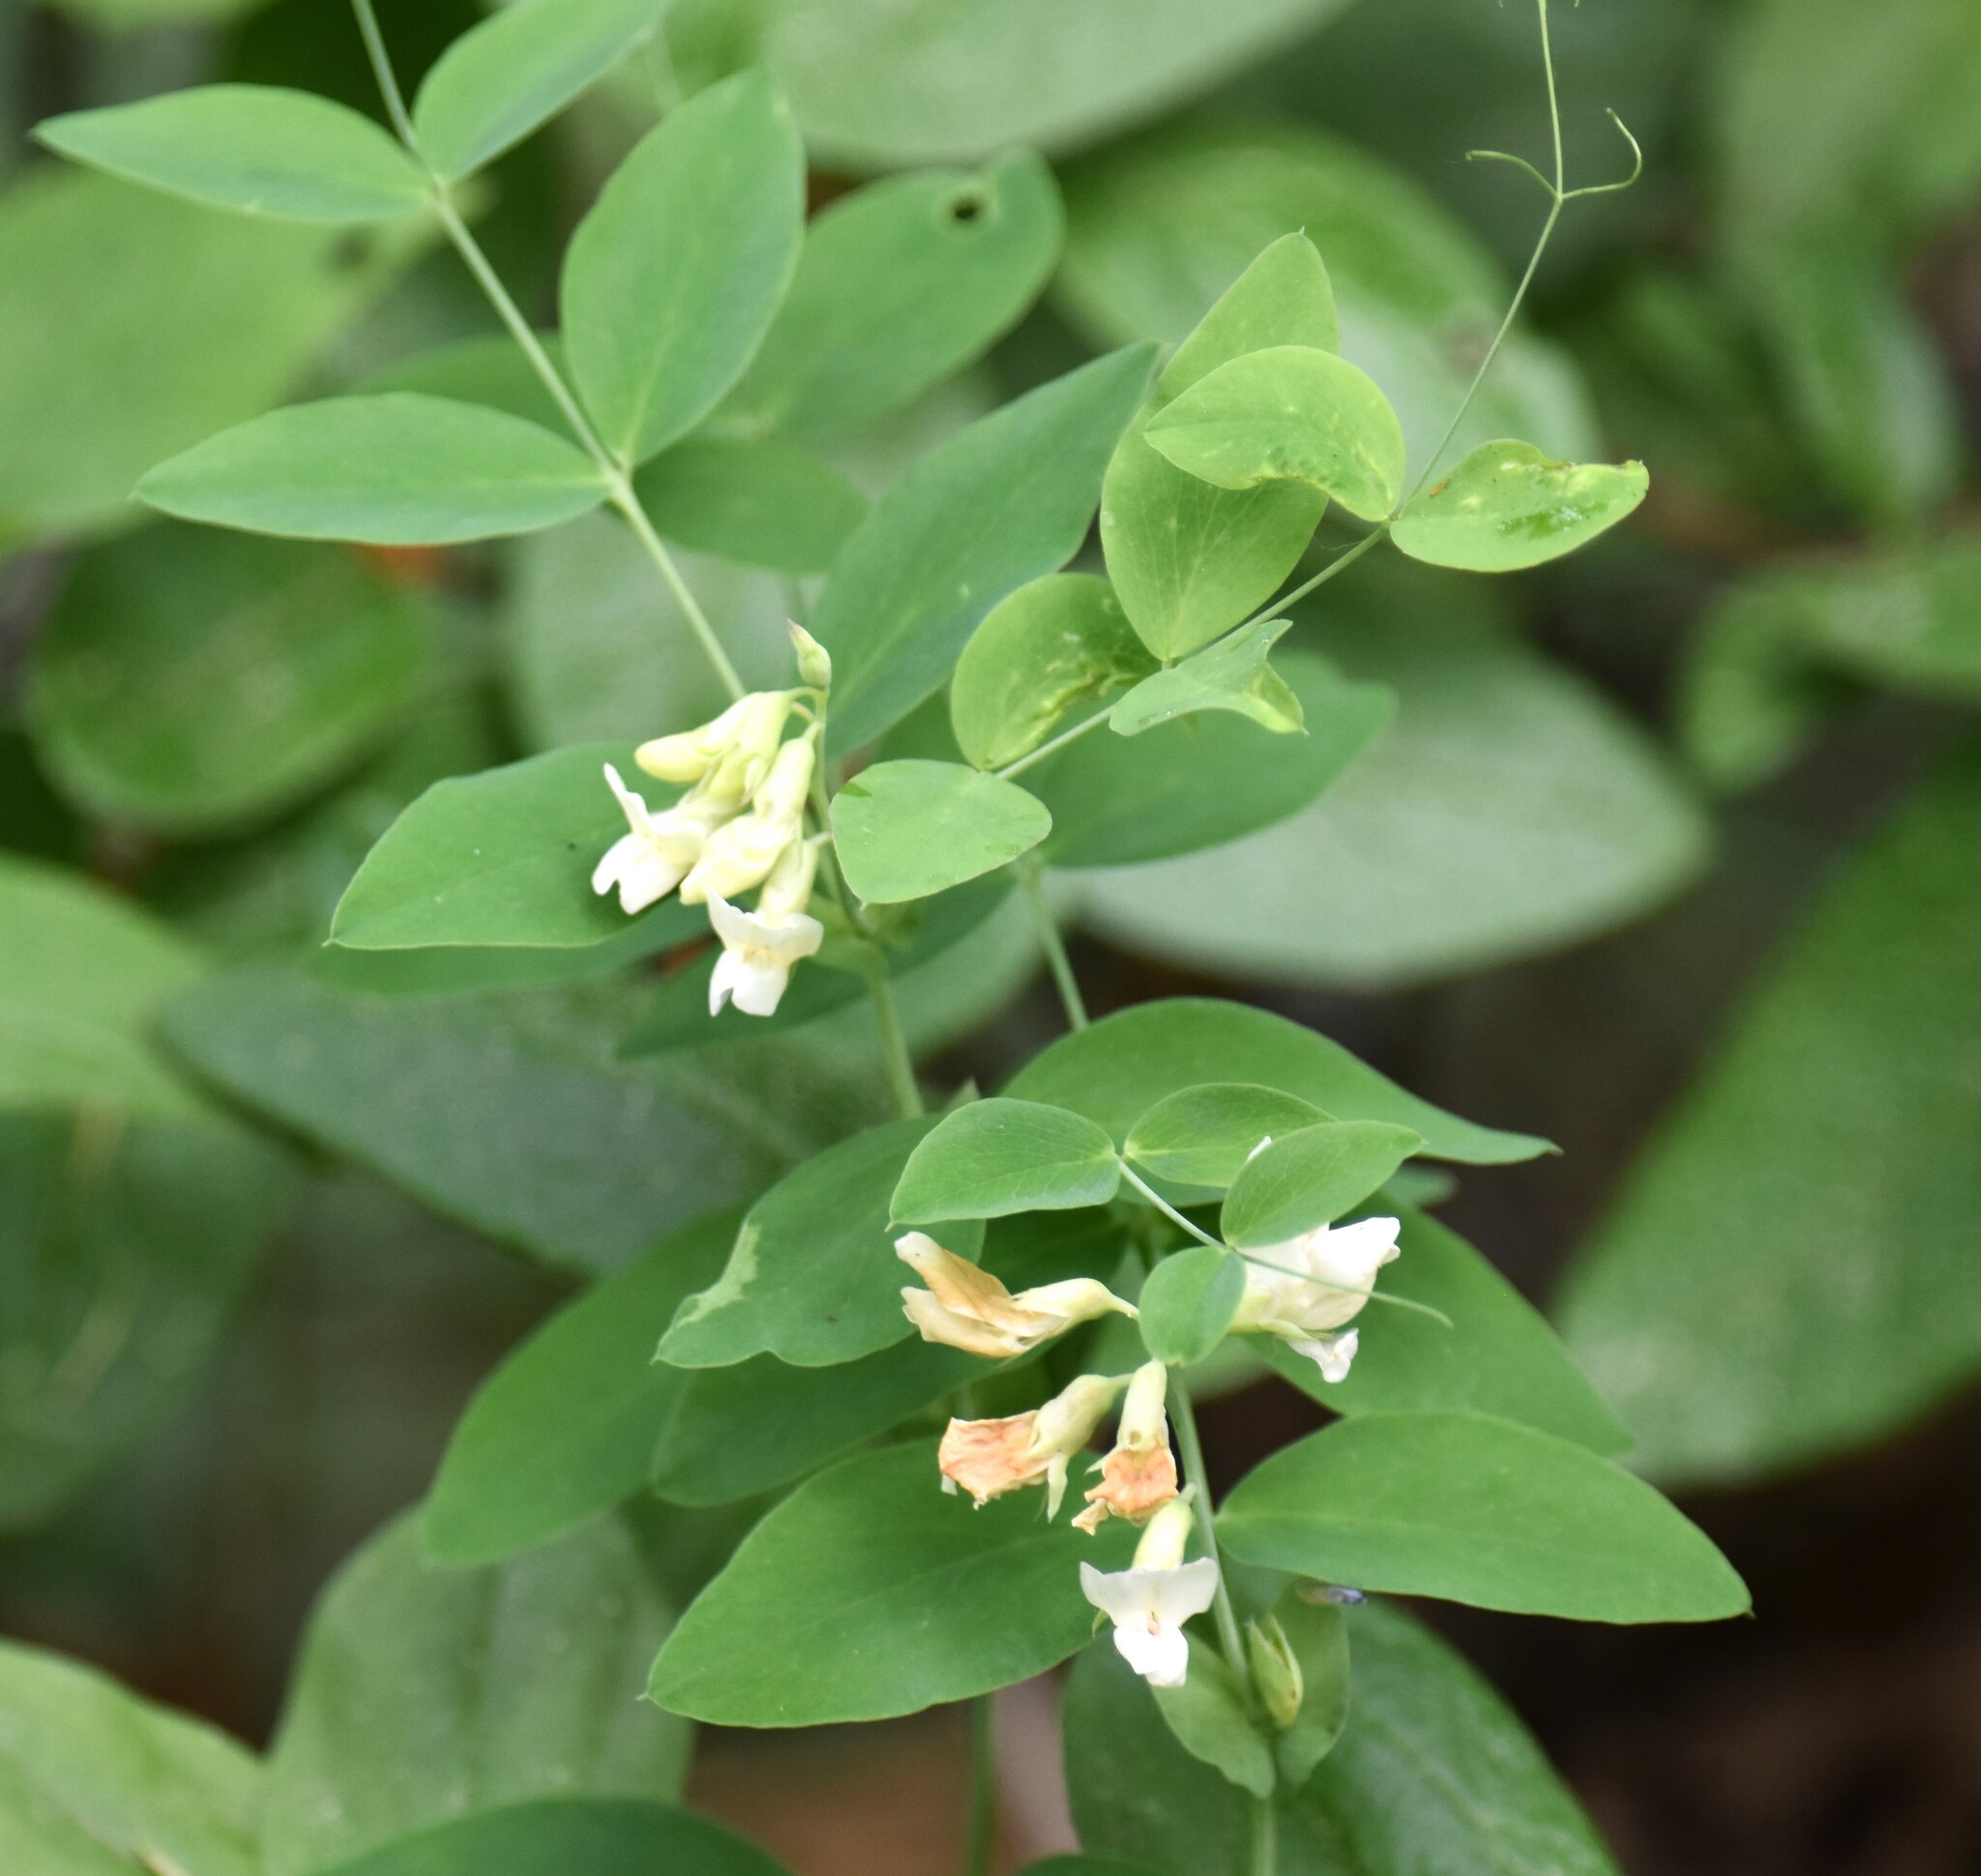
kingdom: Plantae
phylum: Tracheophyta
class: Magnoliopsida
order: Fabales
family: Fabaceae
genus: Lathyrus
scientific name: Lathyrus ochroleucus
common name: Pale vetchling
